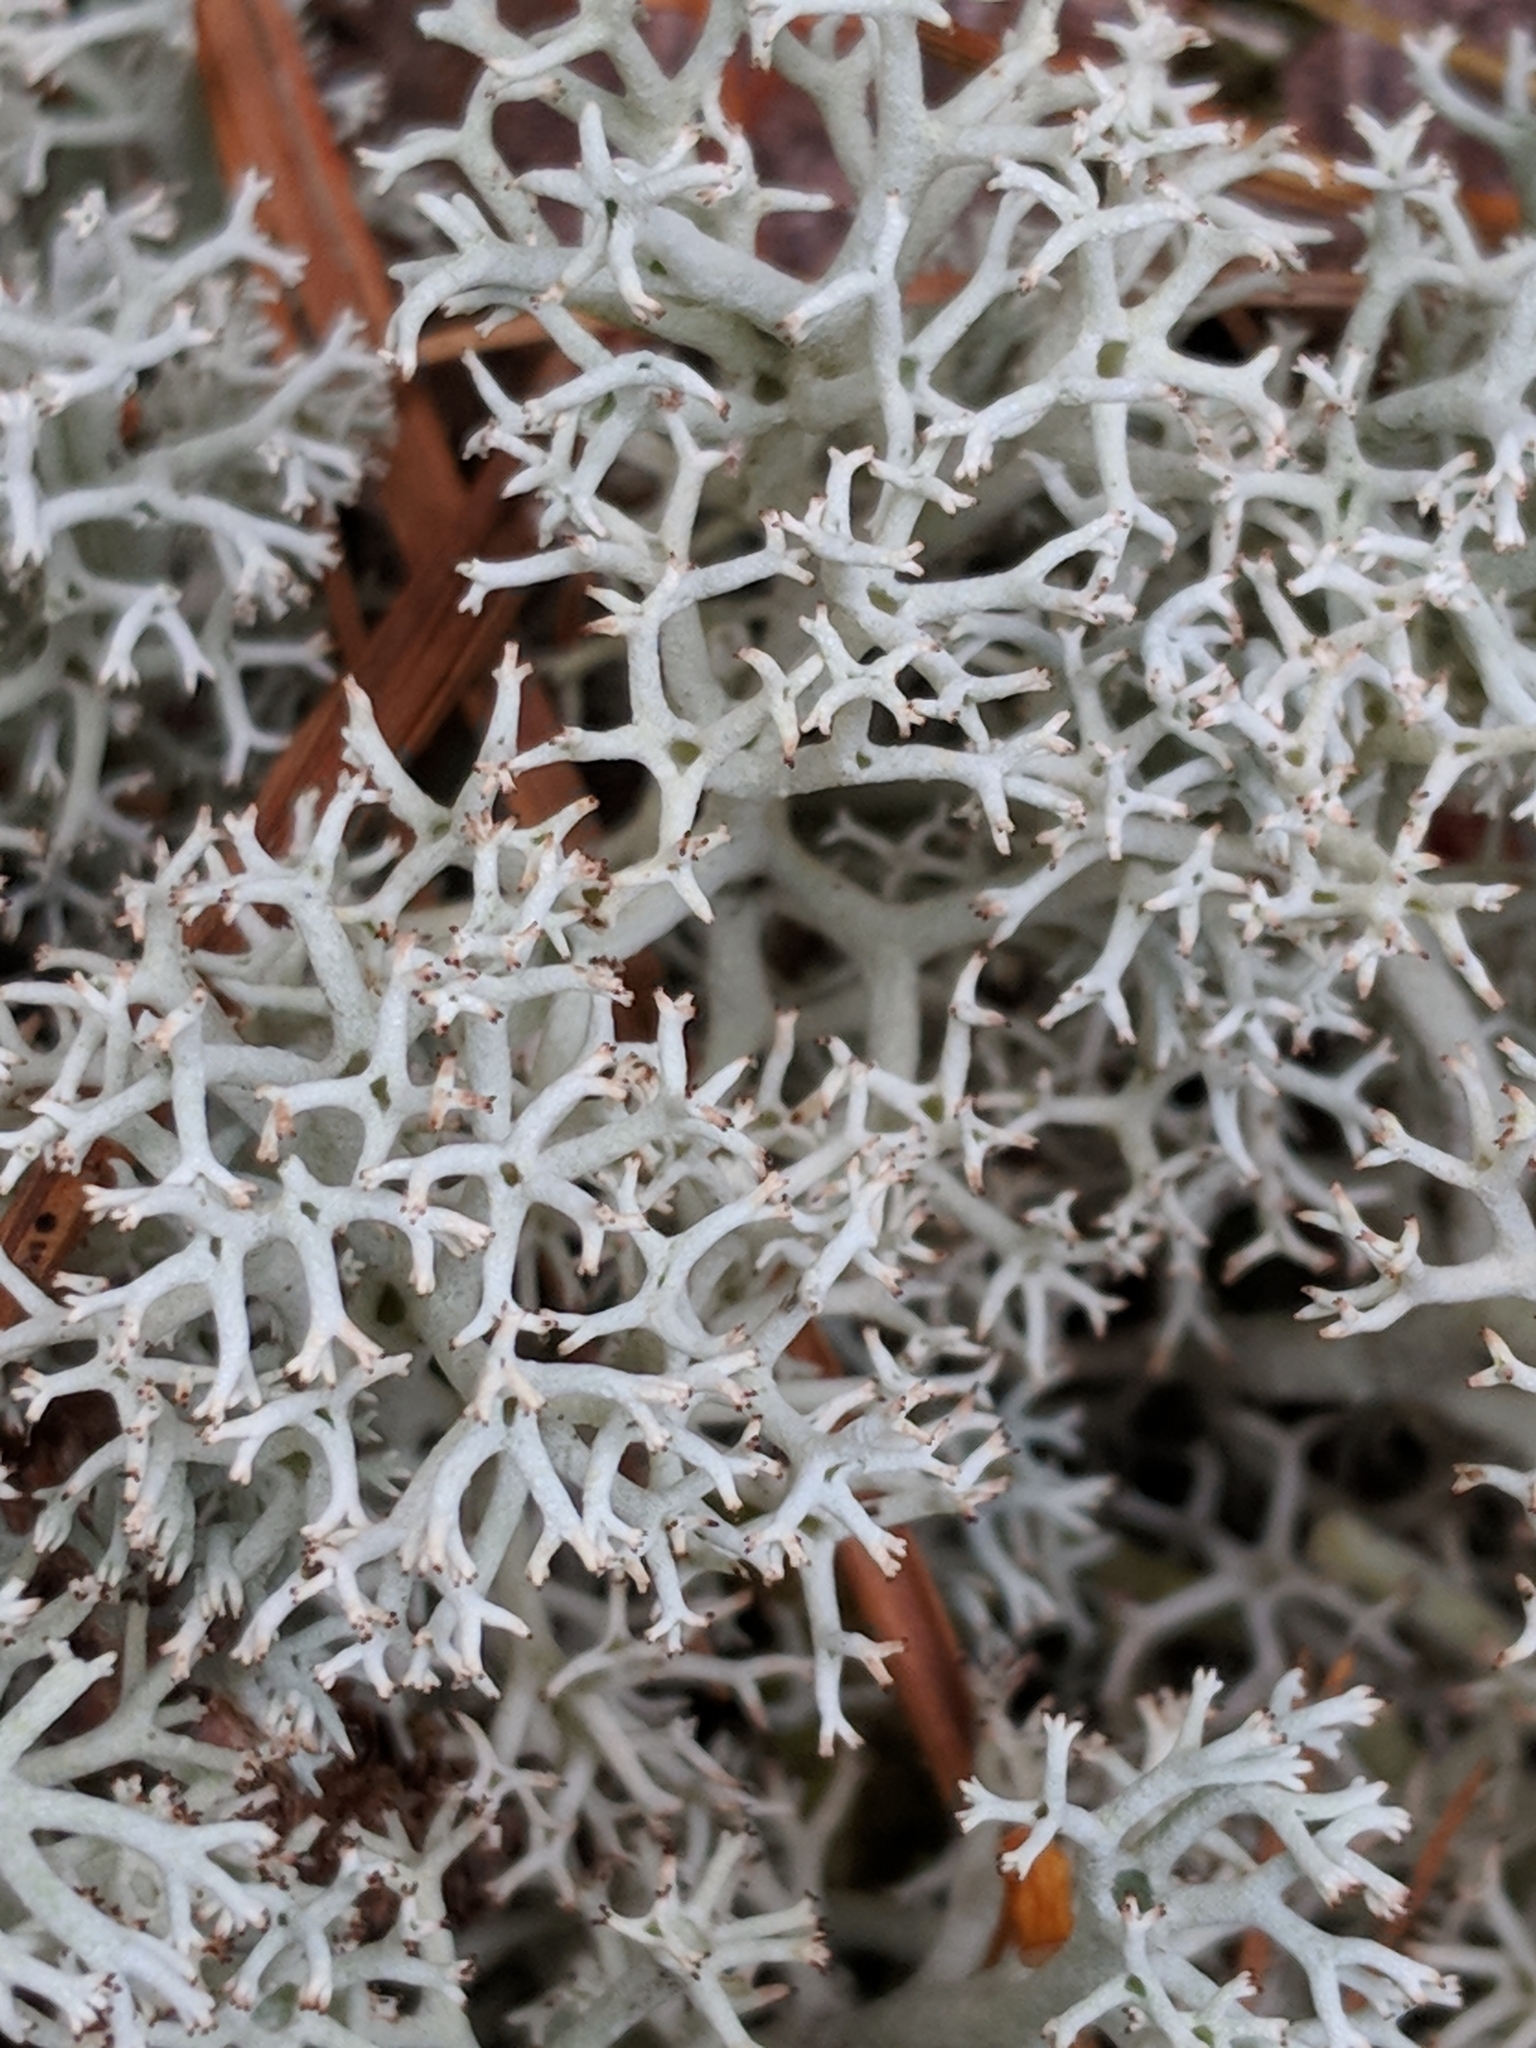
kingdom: Fungi
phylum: Ascomycota
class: Lecanoromycetes
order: Lecanorales
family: Cladoniaceae
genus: Cladonia
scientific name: Cladonia rangiferina
